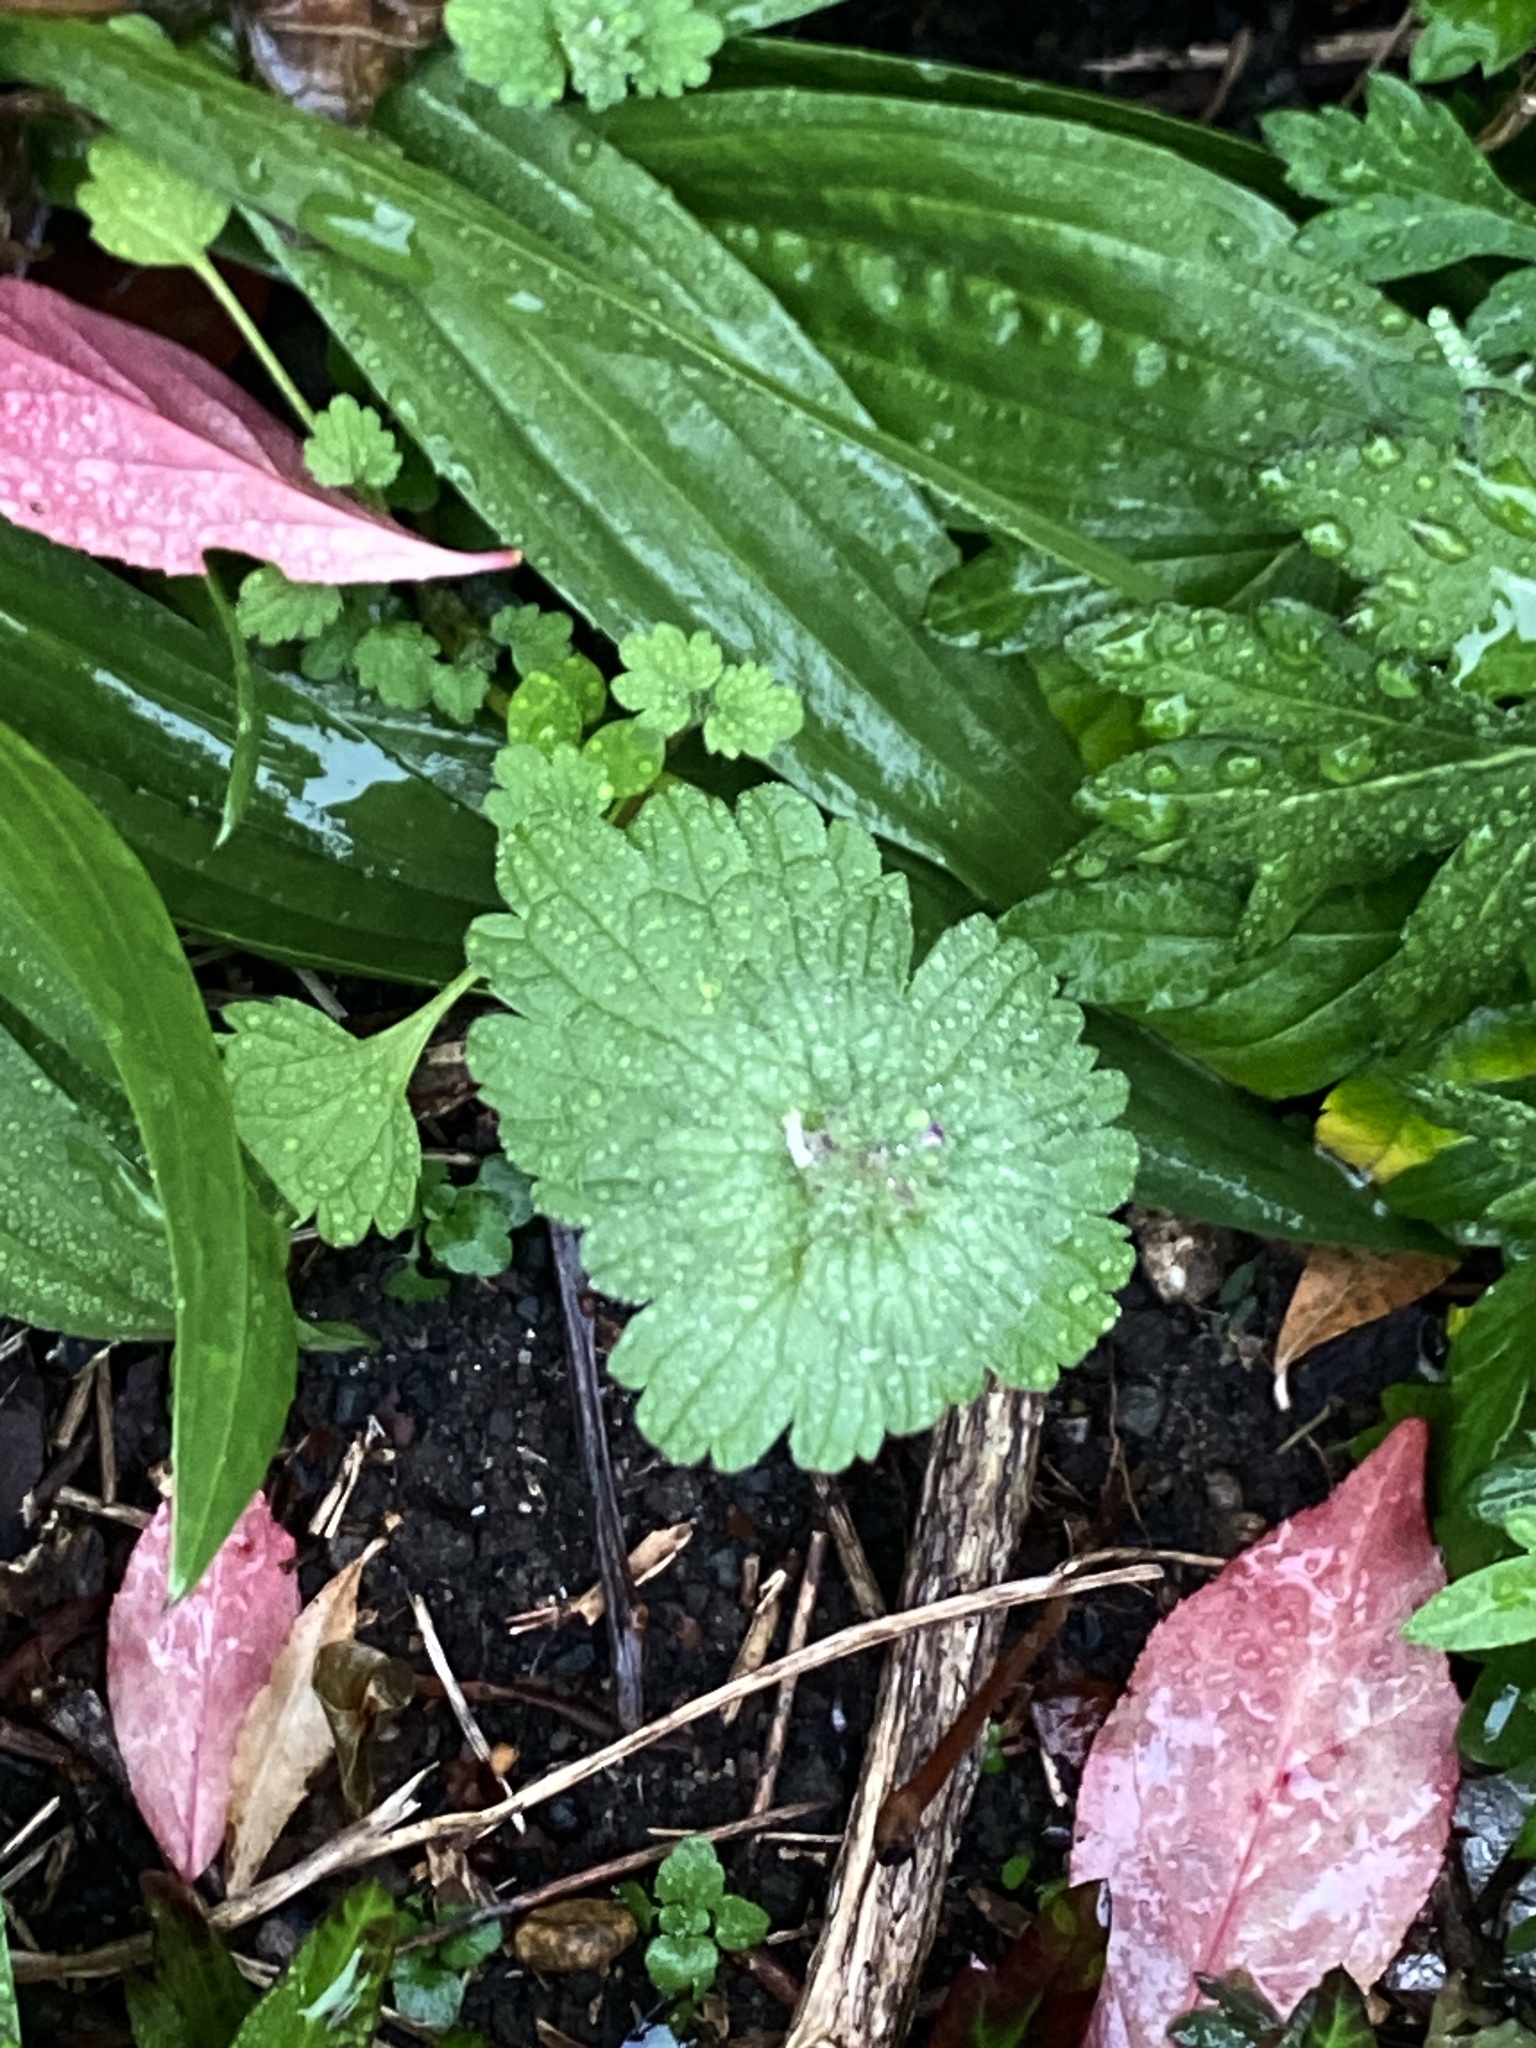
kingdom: Plantae
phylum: Tracheophyta
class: Magnoliopsida
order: Lamiales
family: Lamiaceae
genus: Lamium
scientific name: Lamium amplexicaule
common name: Henbit dead-nettle
